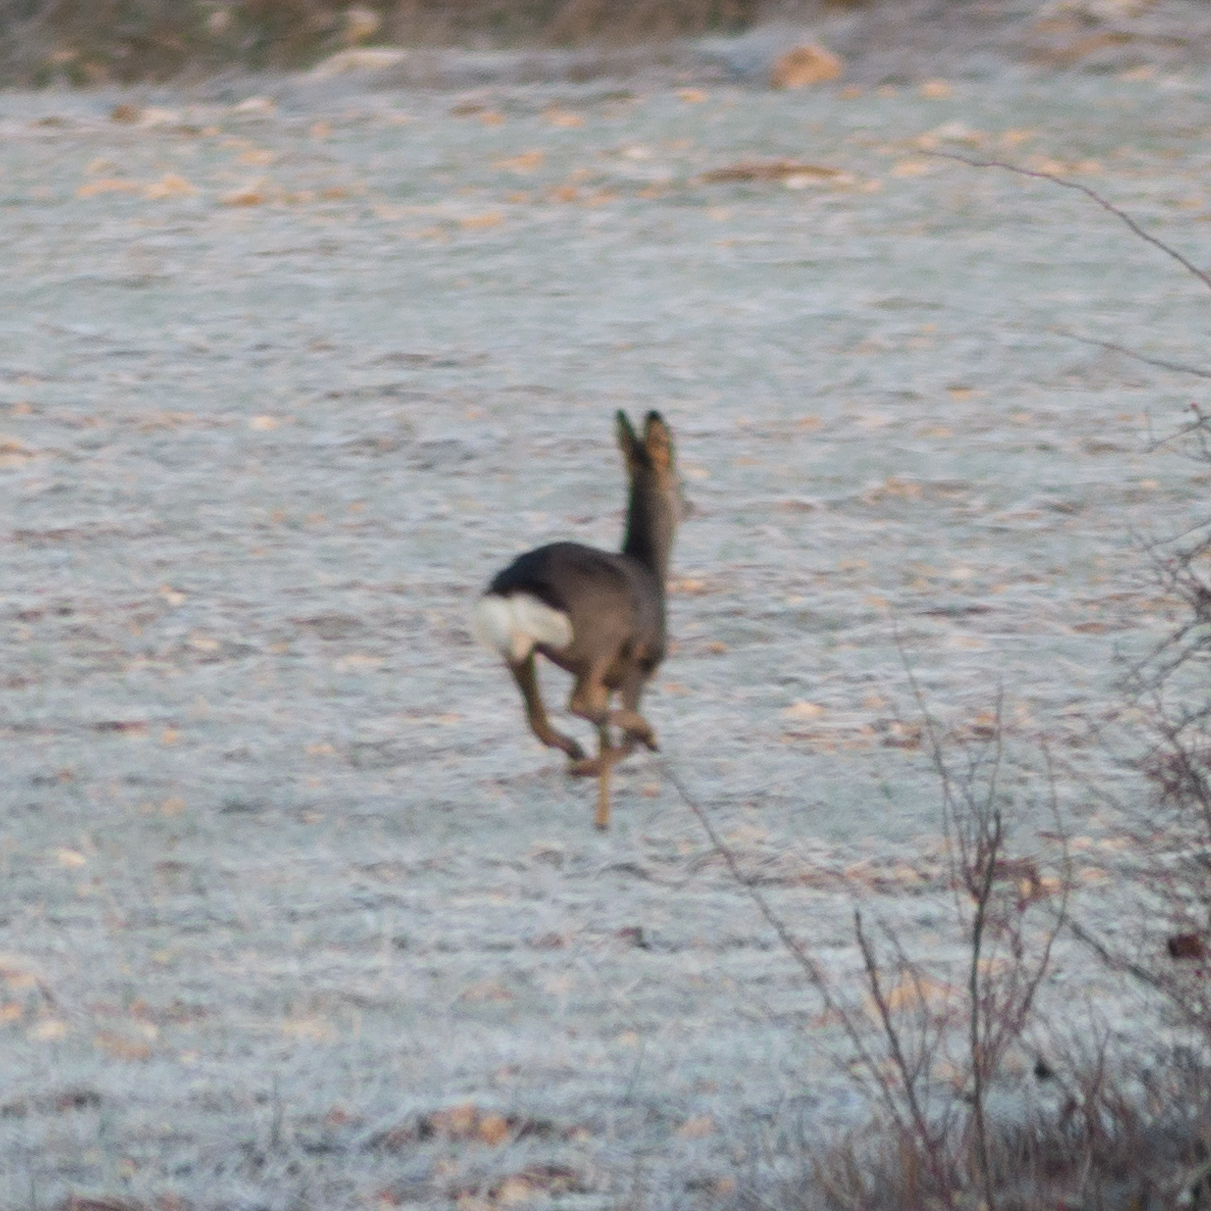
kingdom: Animalia
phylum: Chordata
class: Mammalia
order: Artiodactyla
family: Cervidae
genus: Capreolus
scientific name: Capreolus capreolus
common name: Western roe deer
